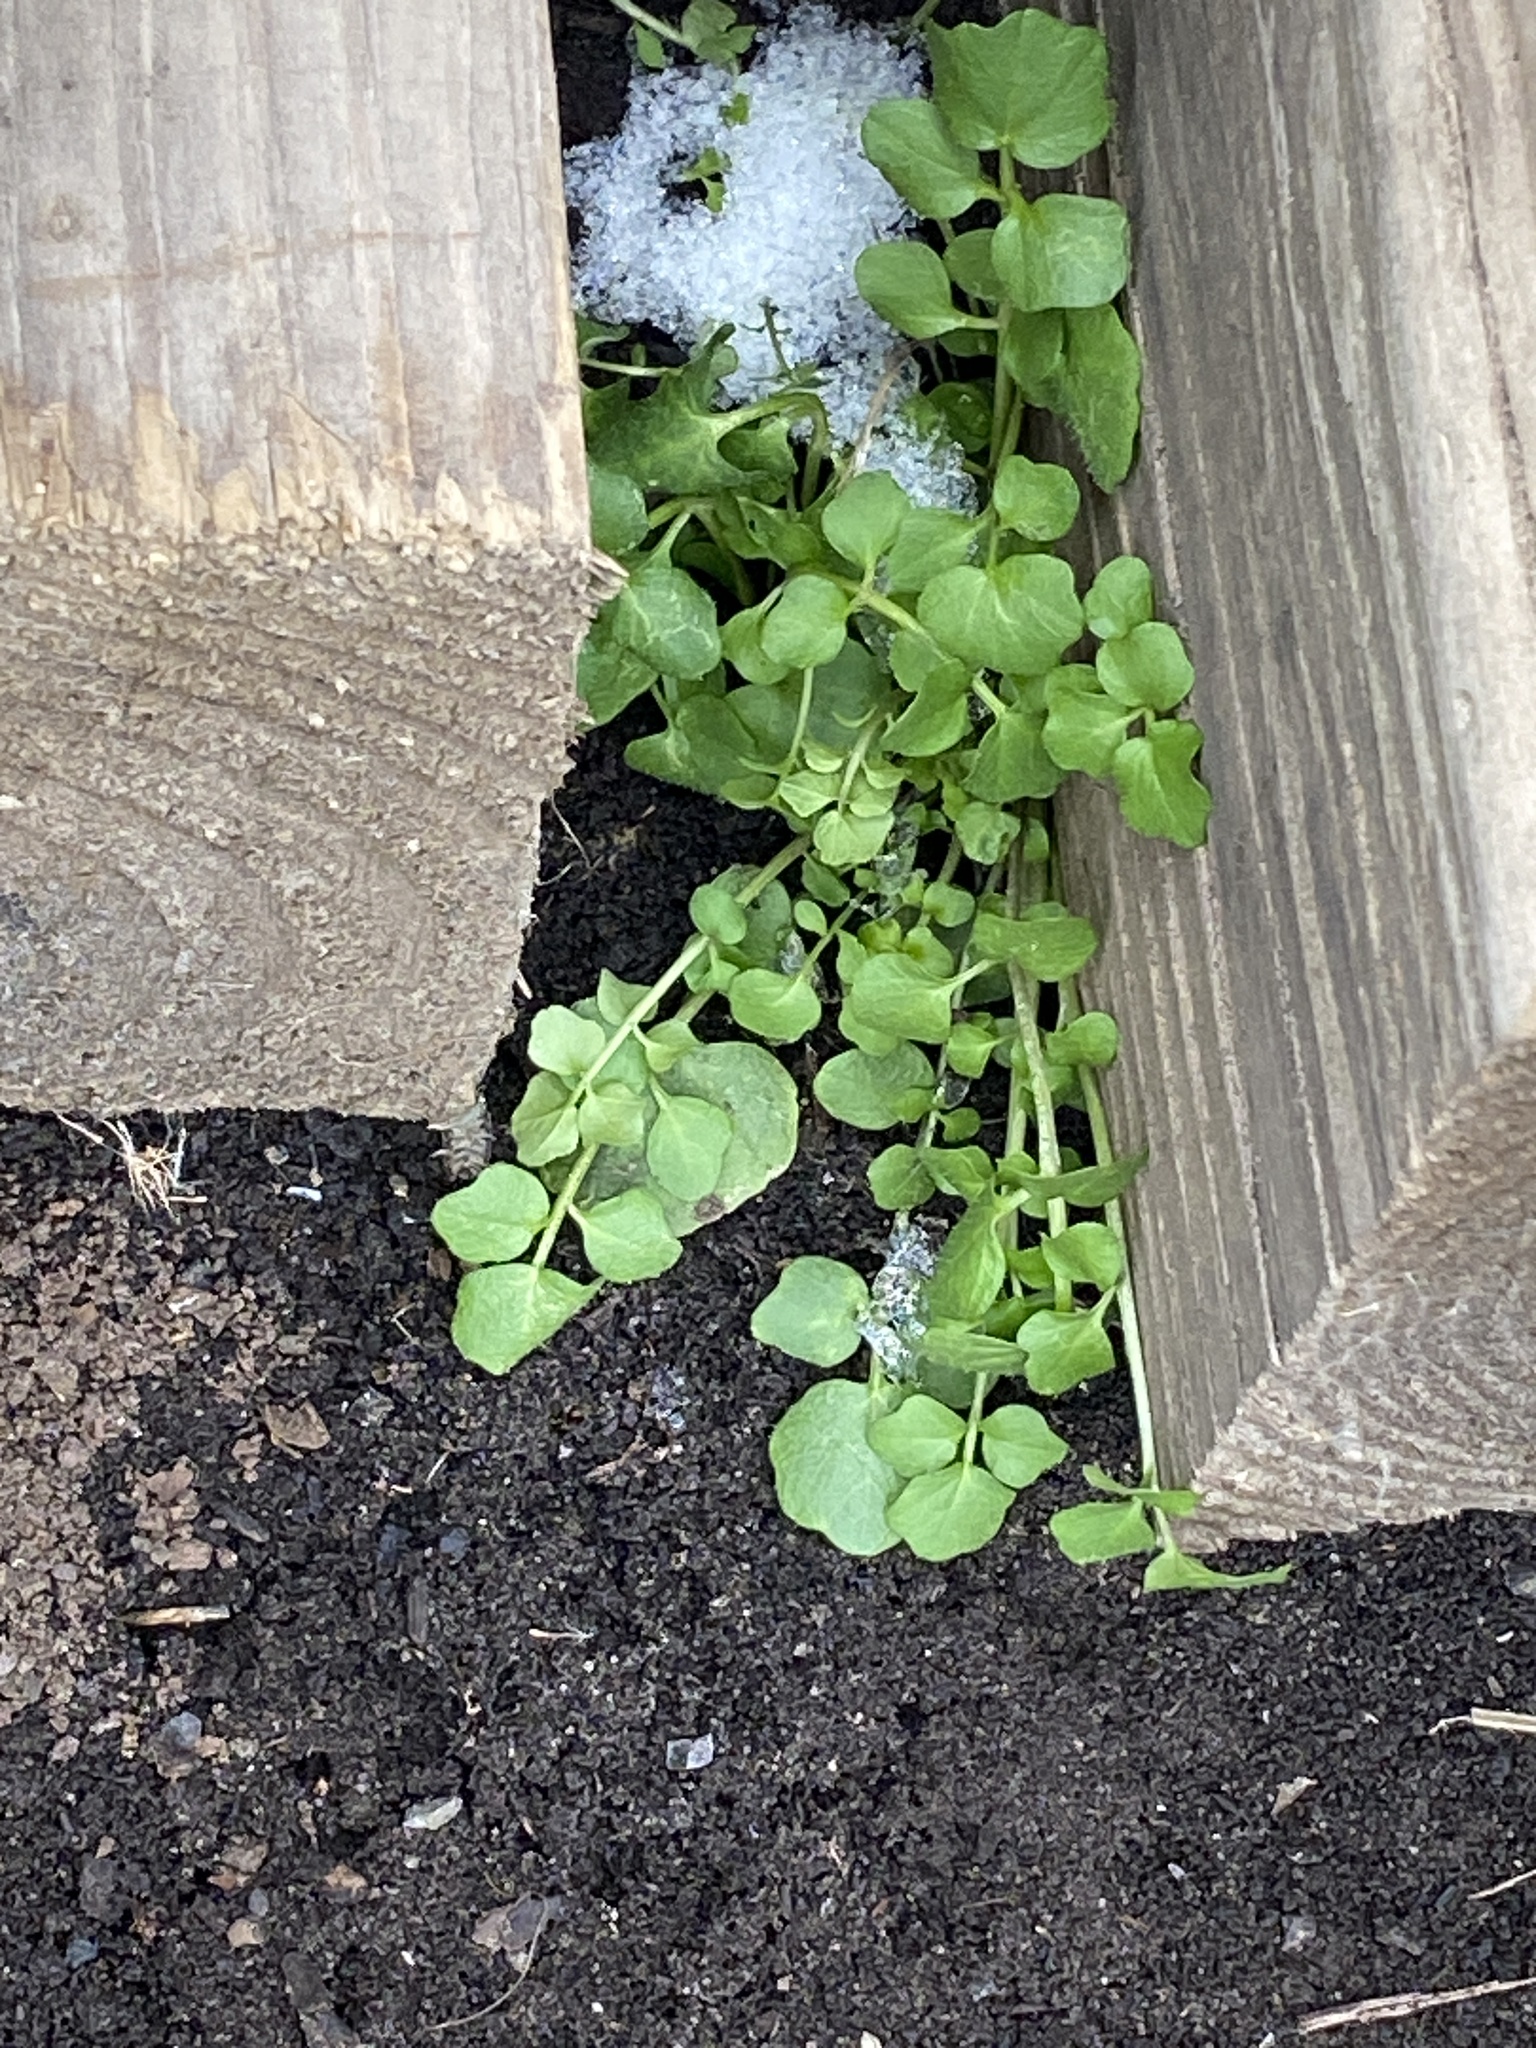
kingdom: Plantae
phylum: Tracheophyta
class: Magnoliopsida
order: Brassicales
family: Brassicaceae
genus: Cardamine
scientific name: Cardamine hirsuta
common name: Hairy bittercress
